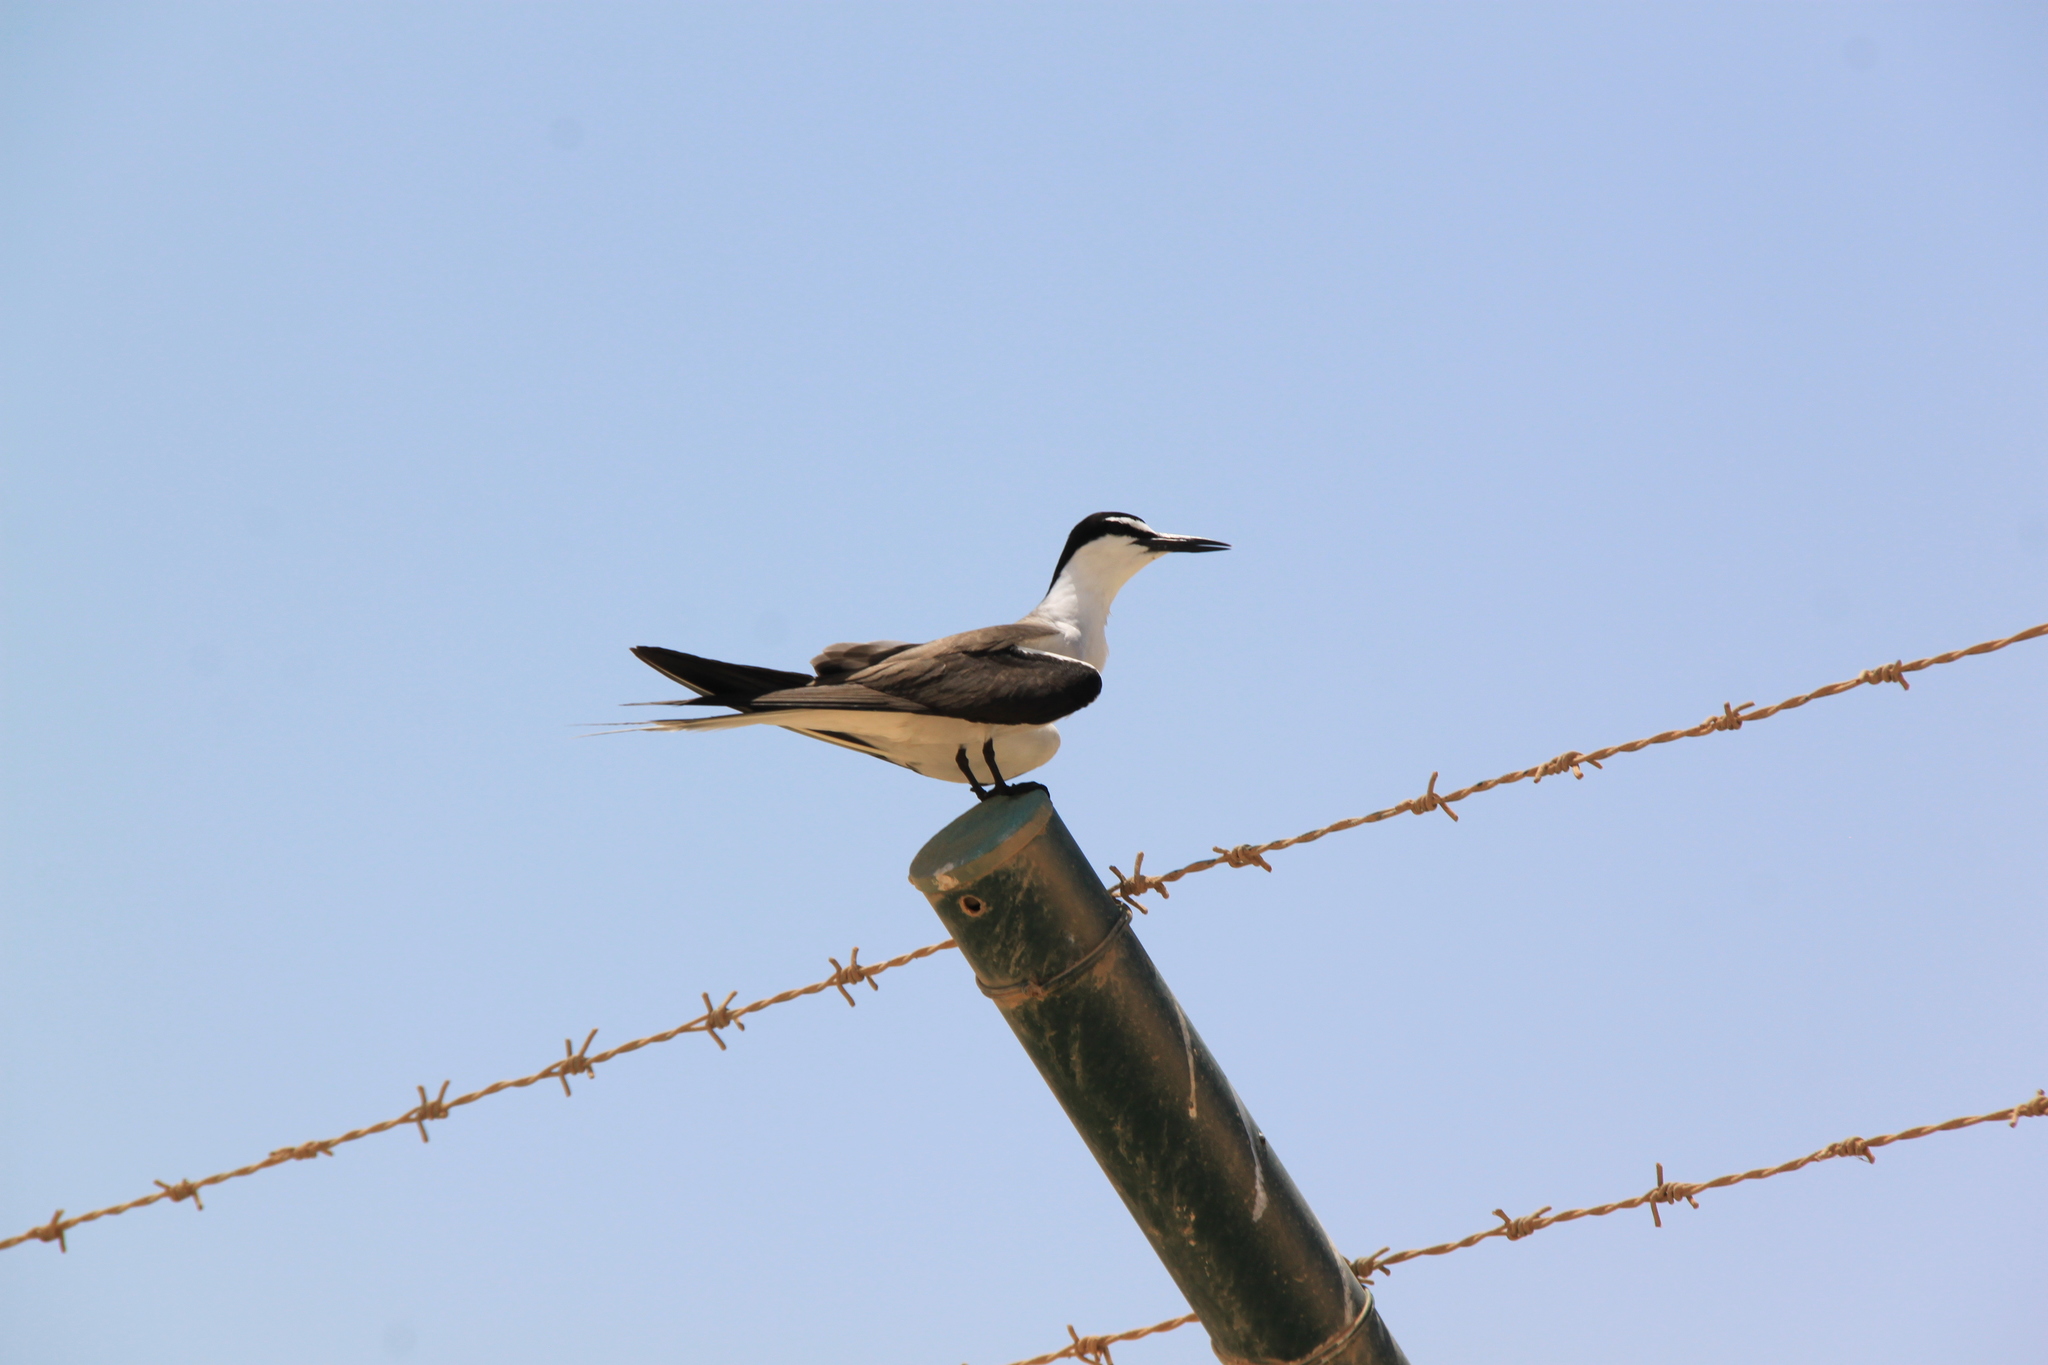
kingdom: Animalia
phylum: Chordata
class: Aves
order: Charadriiformes
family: Laridae
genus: Onychoprion
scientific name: Onychoprion anaethetus
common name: Bridled tern
